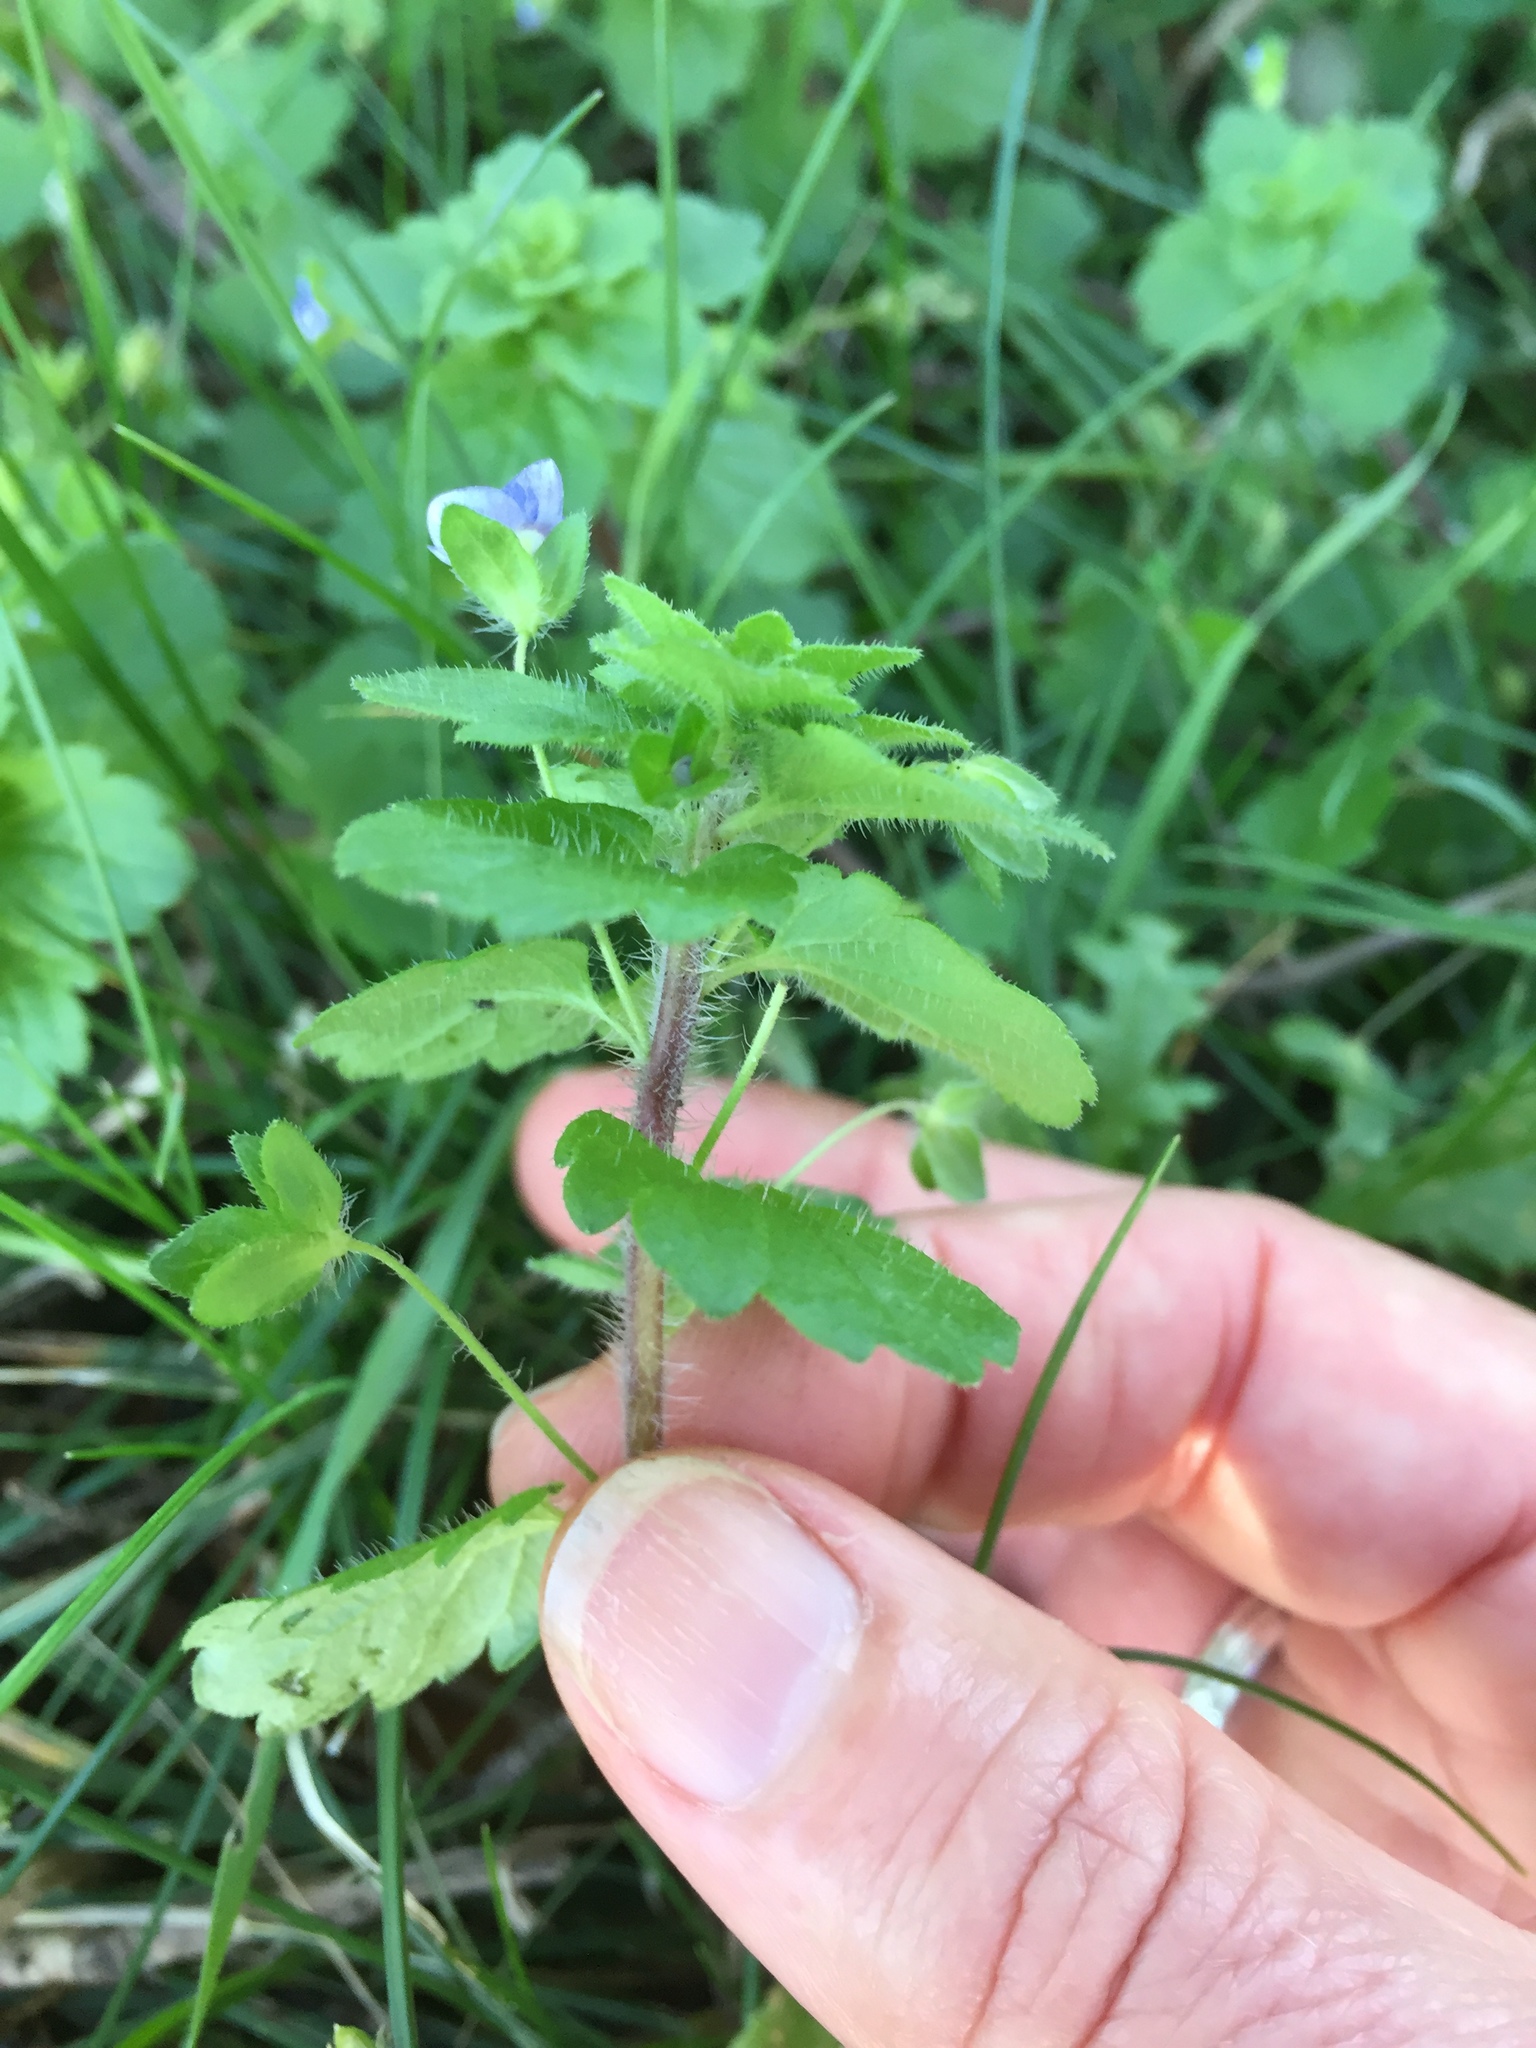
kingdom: Plantae
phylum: Tracheophyta
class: Magnoliopsida
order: Lamiales
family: Plantaginaceae
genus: Veronica
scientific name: Veronica persica
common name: Common field-speedwell
